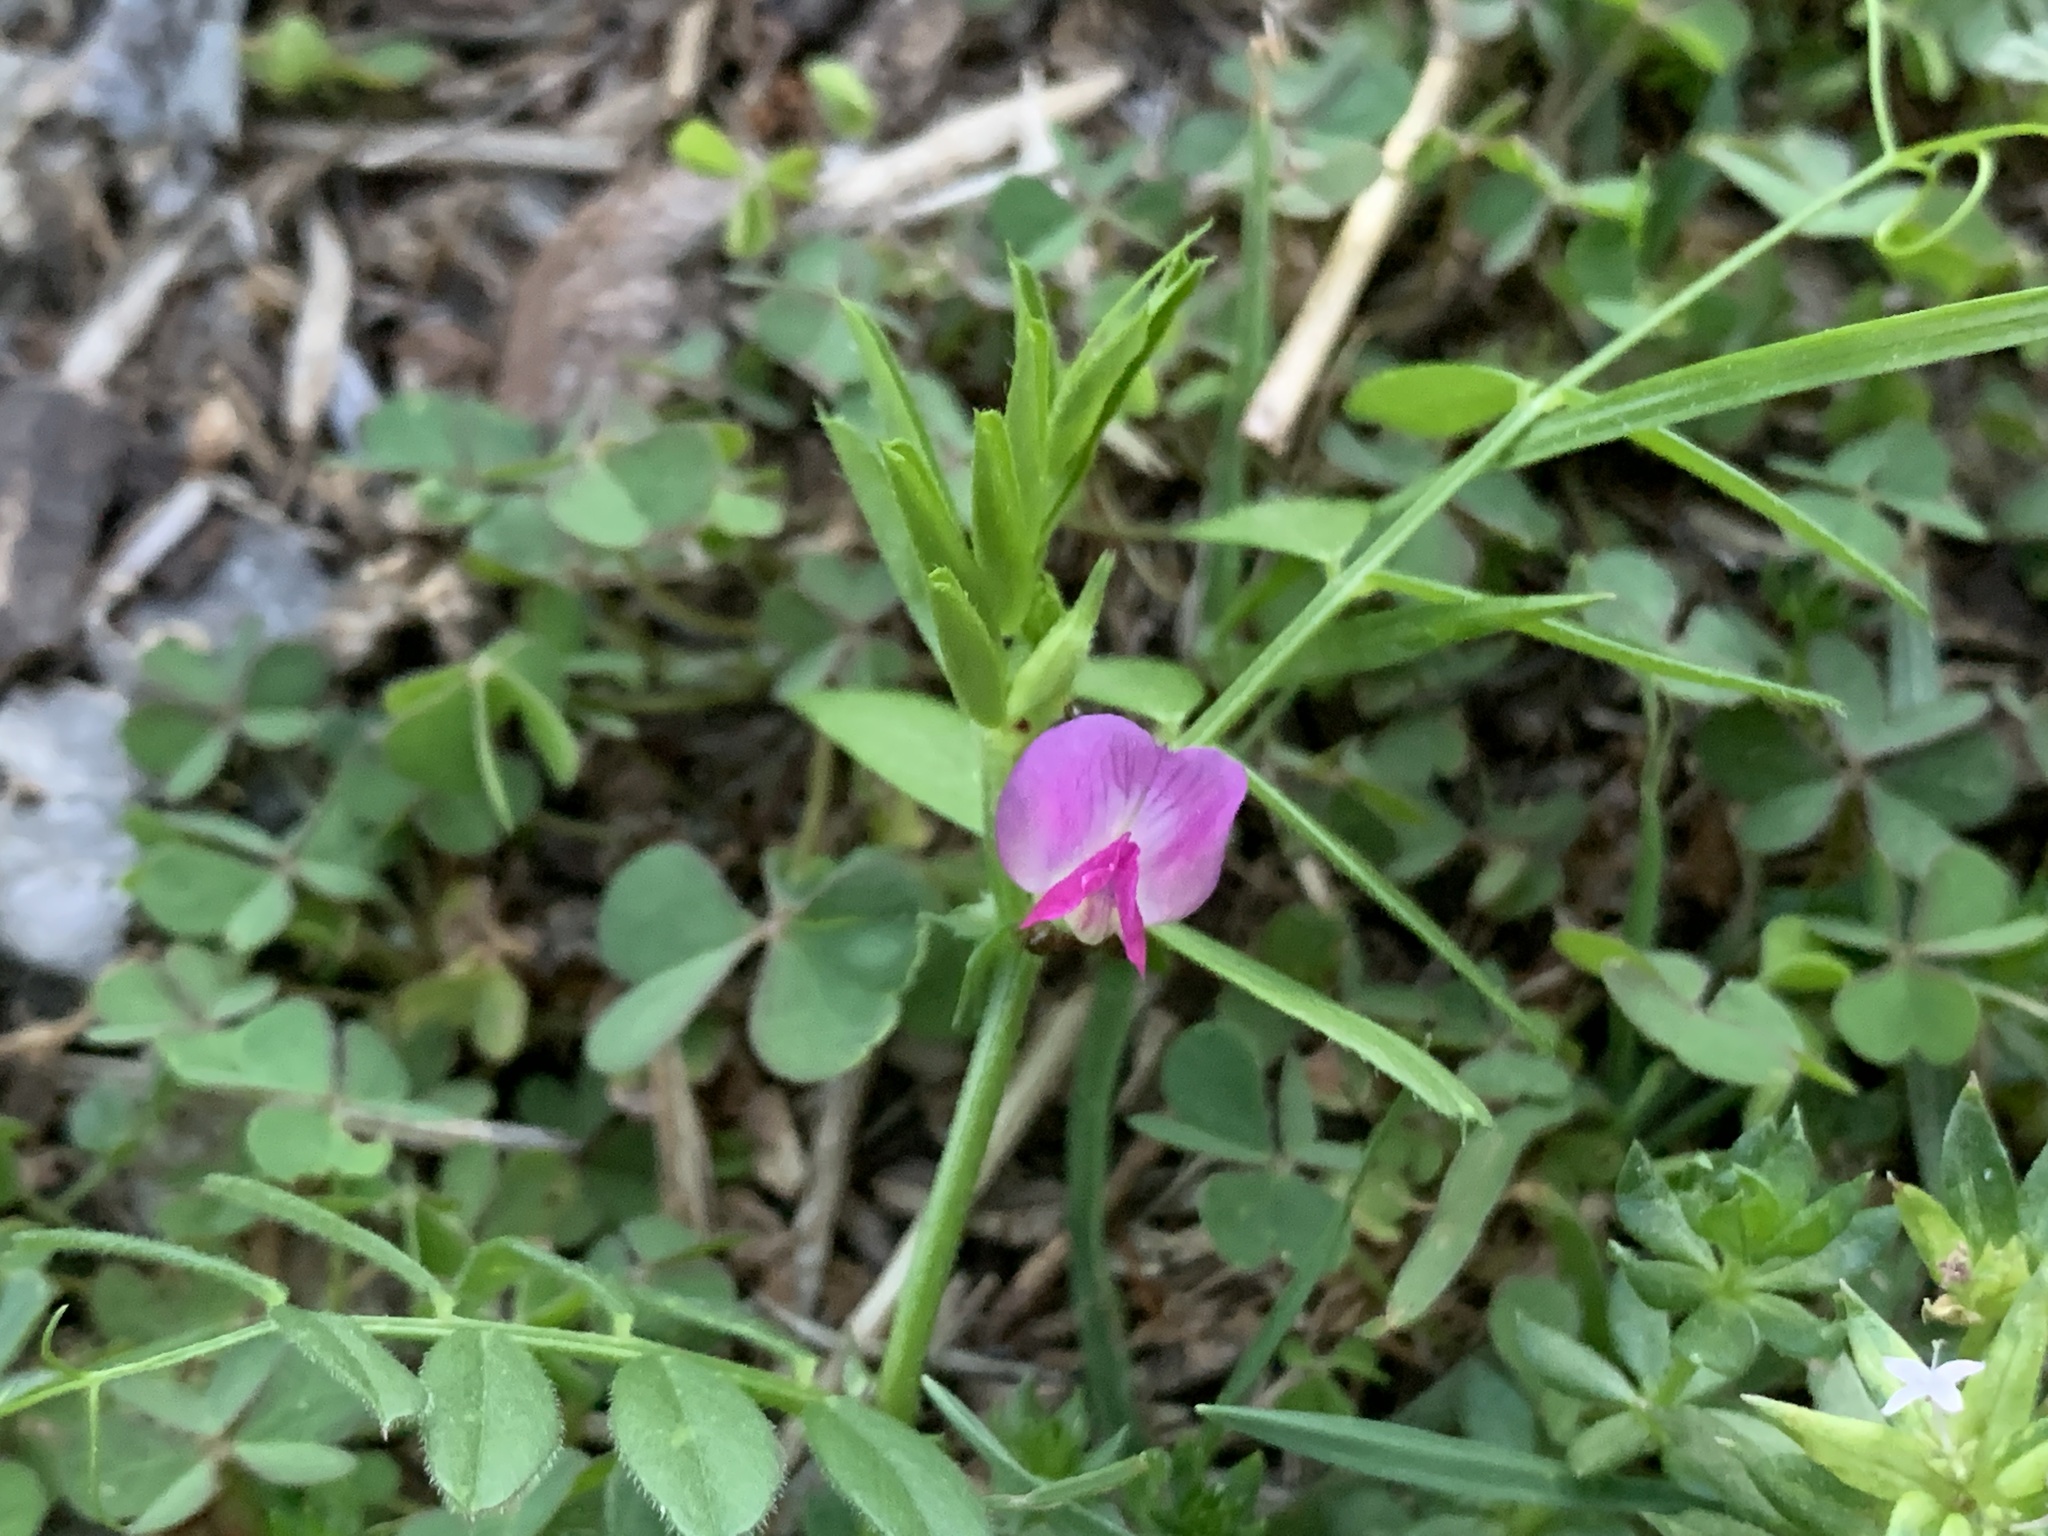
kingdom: Plantae
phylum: Tracheophyta
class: Magnoliopsida
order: Fabales
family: Fabaceae
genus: Vicia
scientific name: Vicia sativa
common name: Garden vetch
